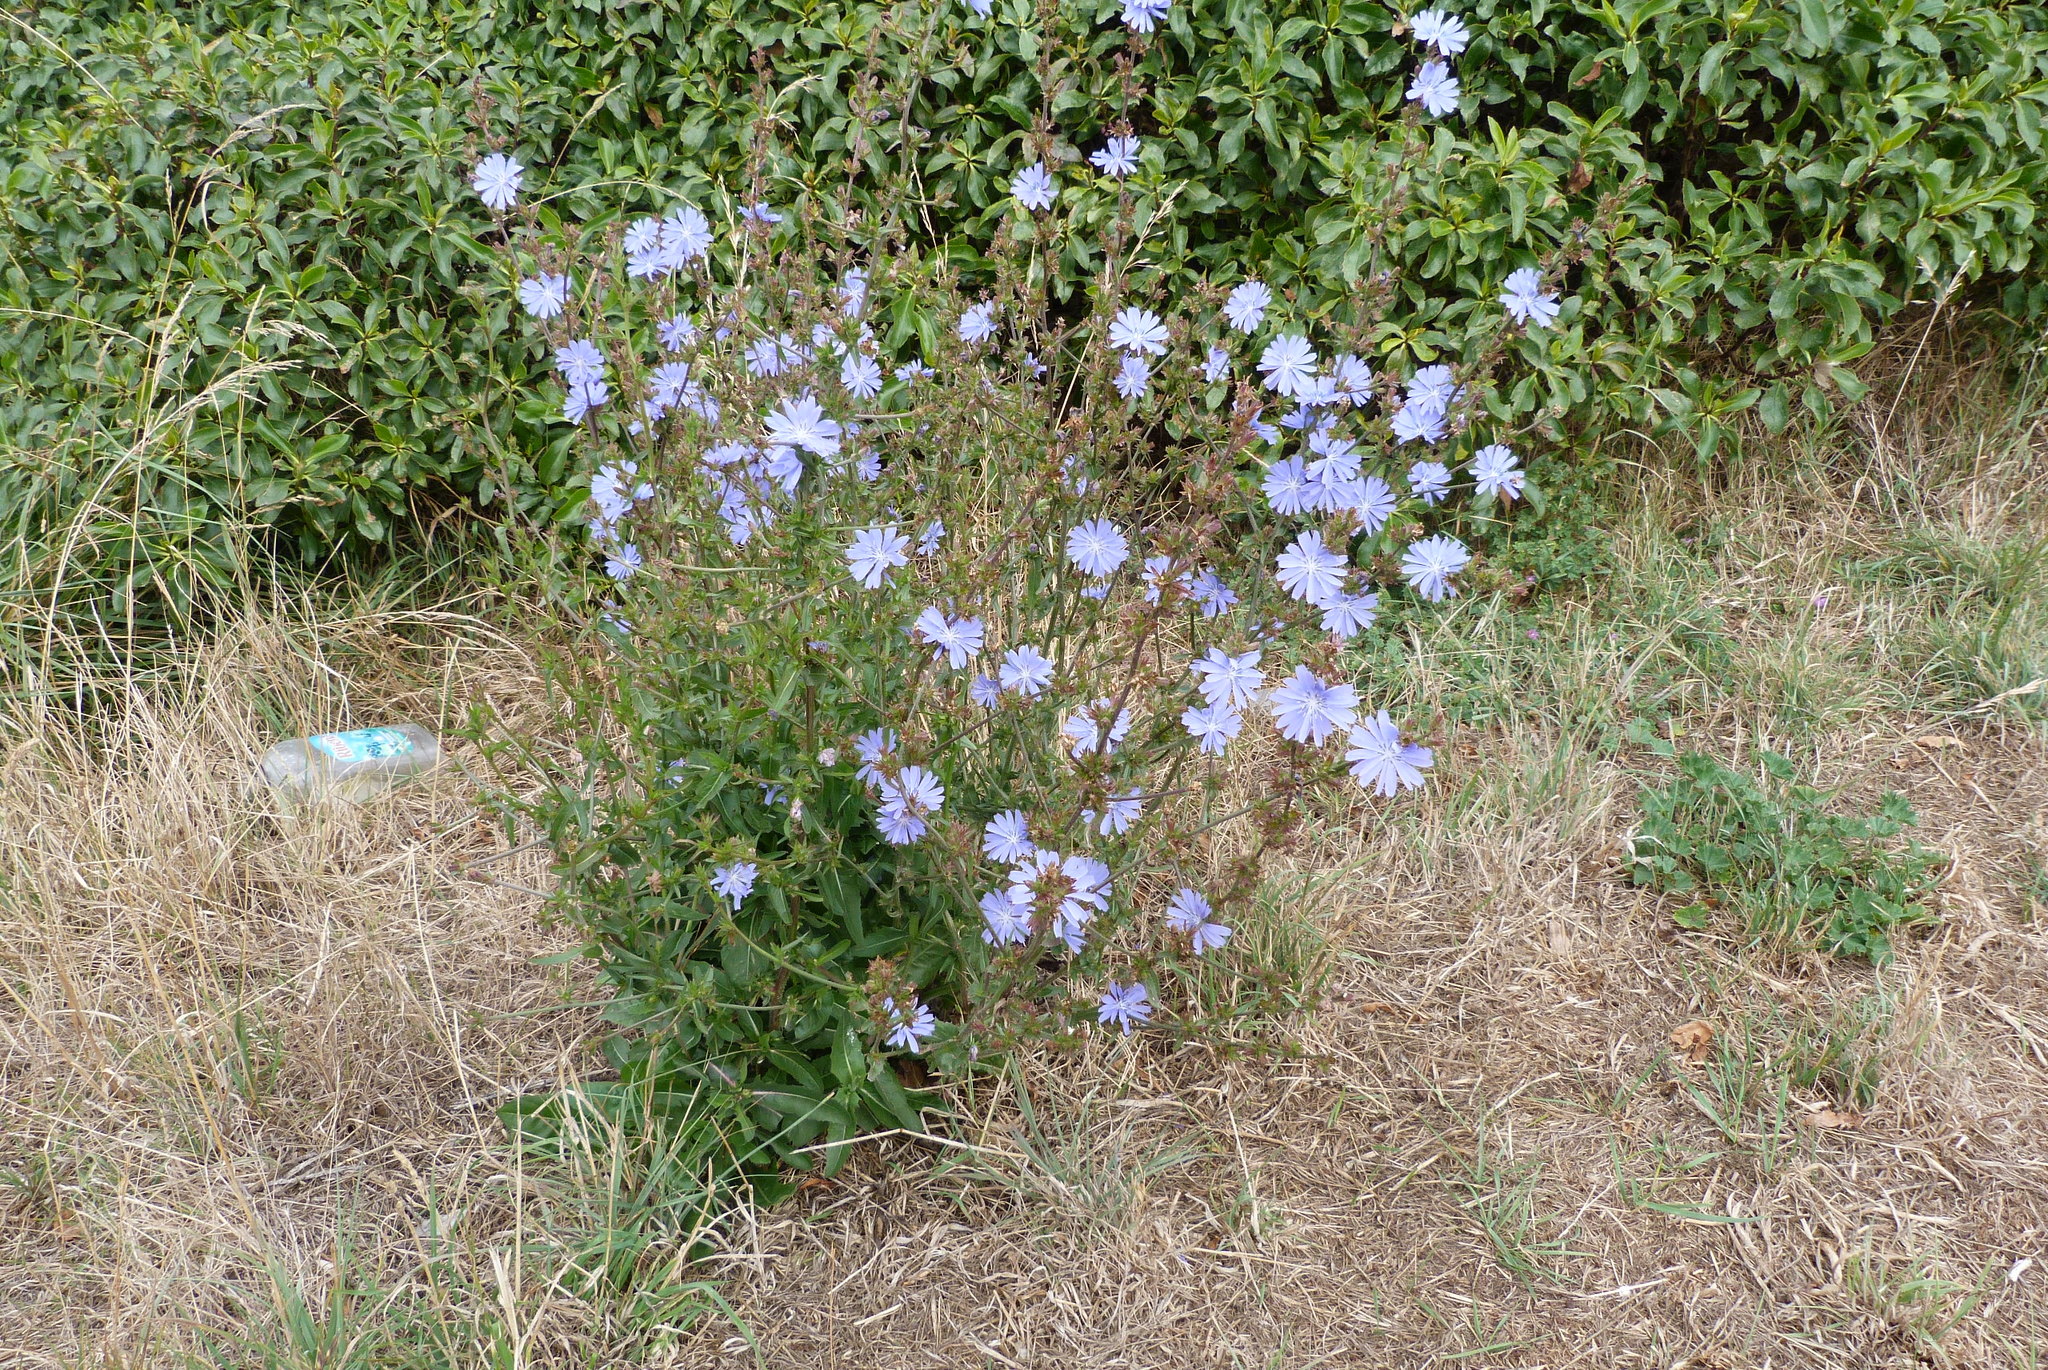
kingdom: Plantae
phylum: Tracheophyta
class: Magnoliopsida
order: Asterales
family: Asteraceae
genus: Cichorium
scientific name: Cichorium intybus
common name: Chicory
